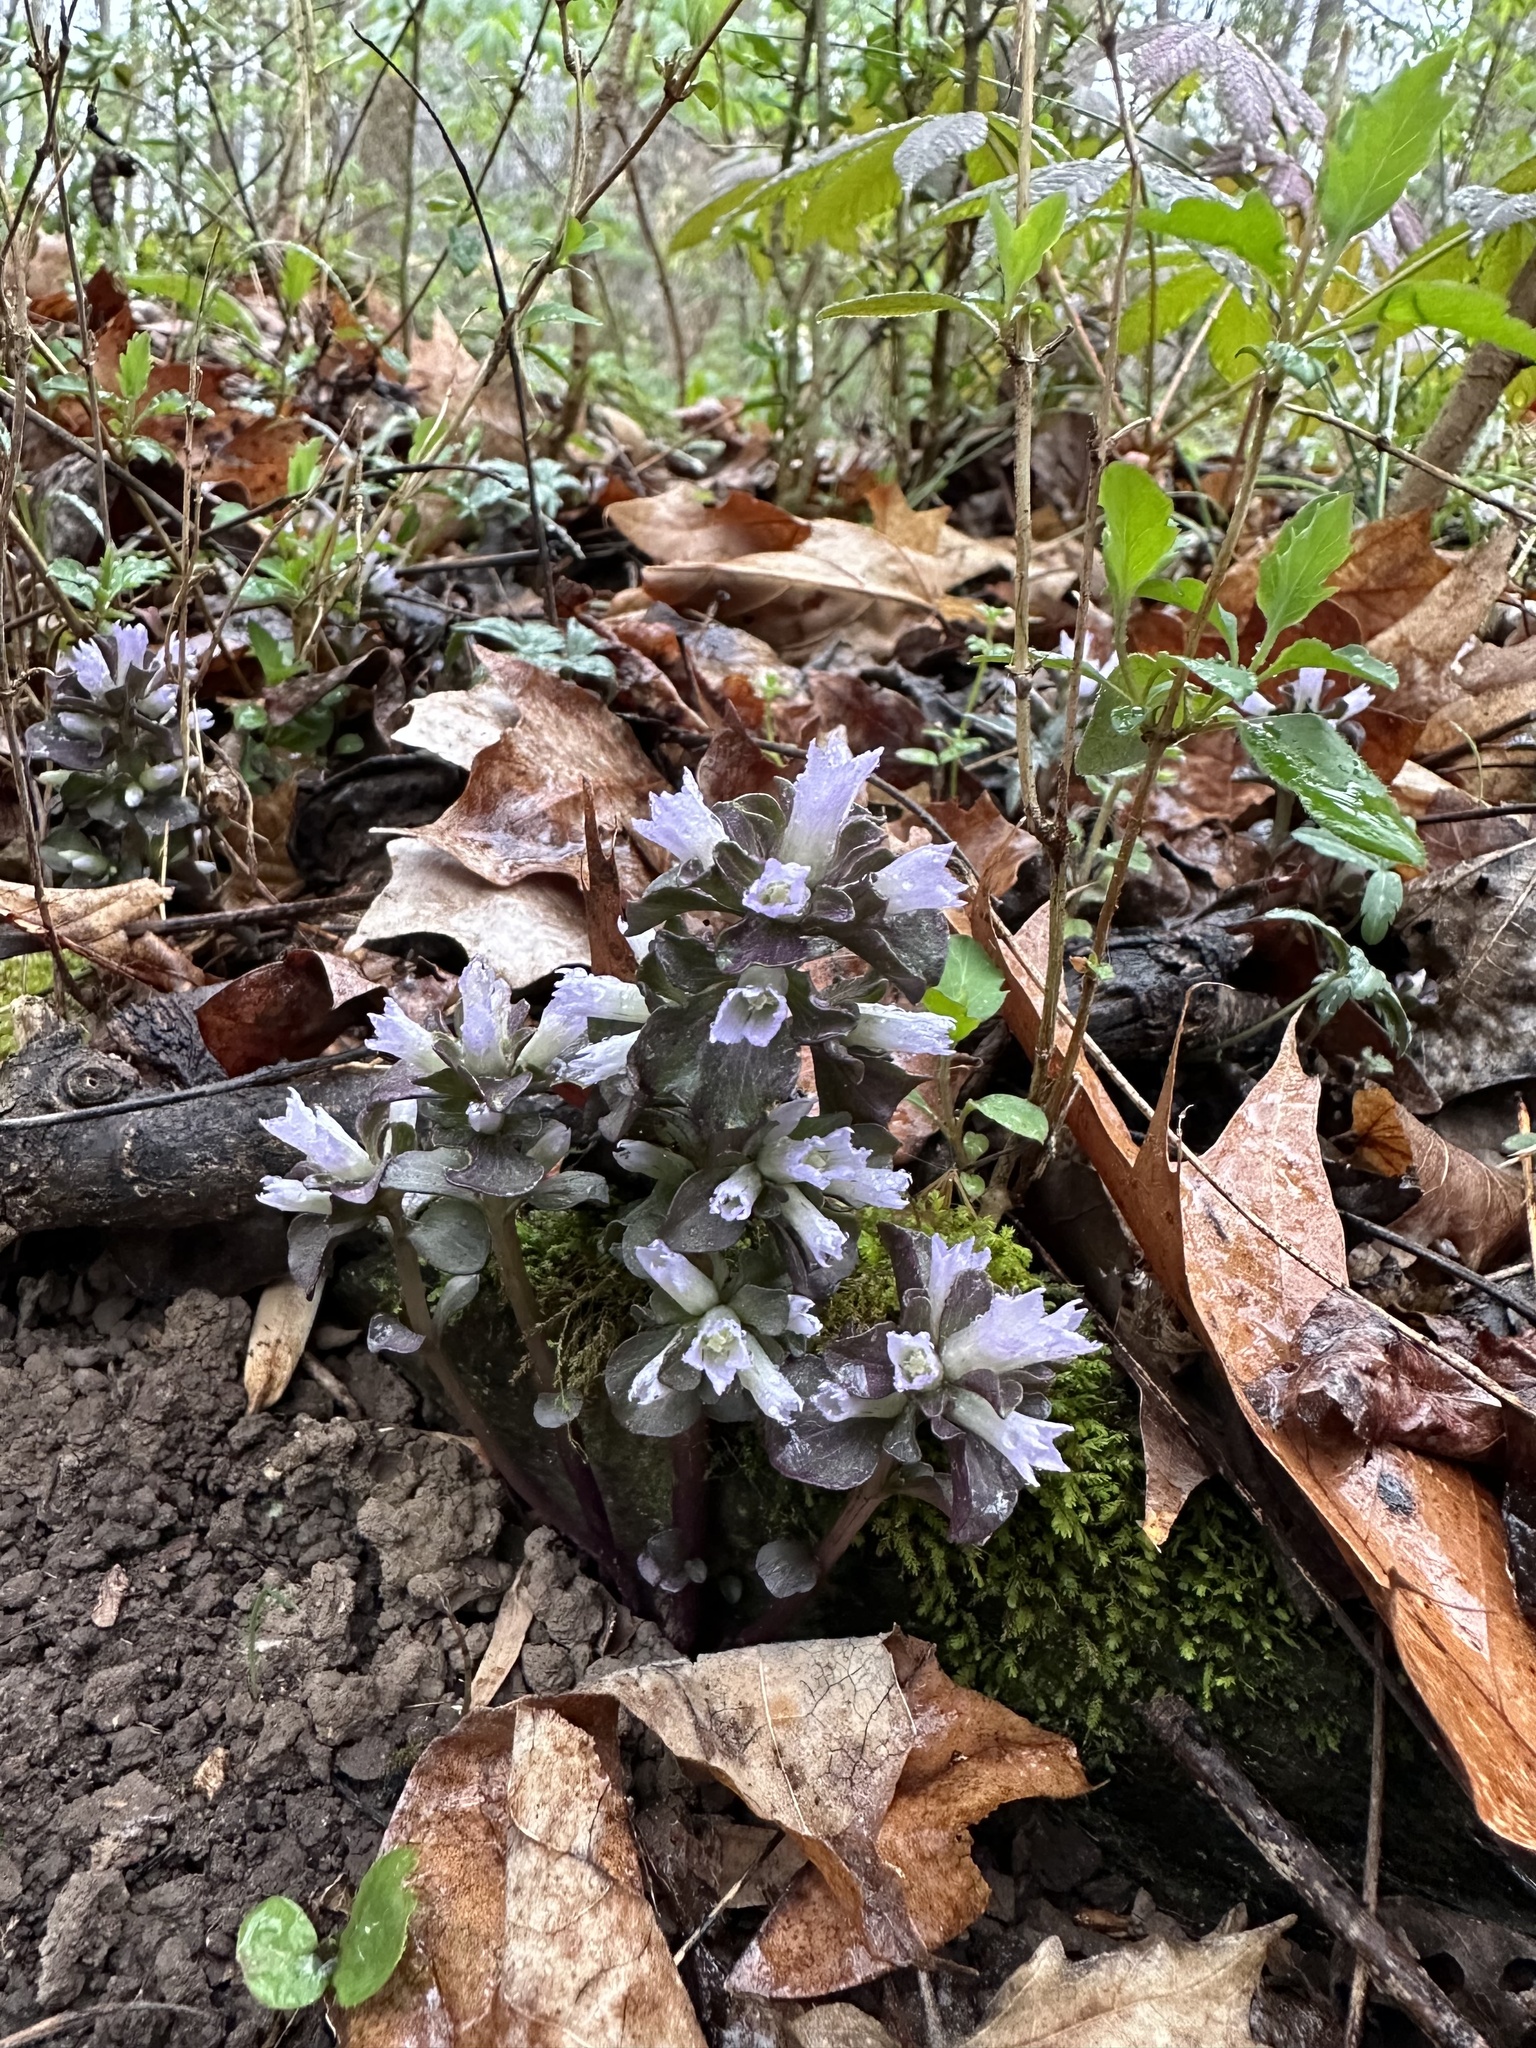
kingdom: Plantae
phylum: Tracheophyta
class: Magnoliopsida
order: Gentianales
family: Gentianaceae
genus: Obolaria
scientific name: Obolaria virginica
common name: Pennywort
